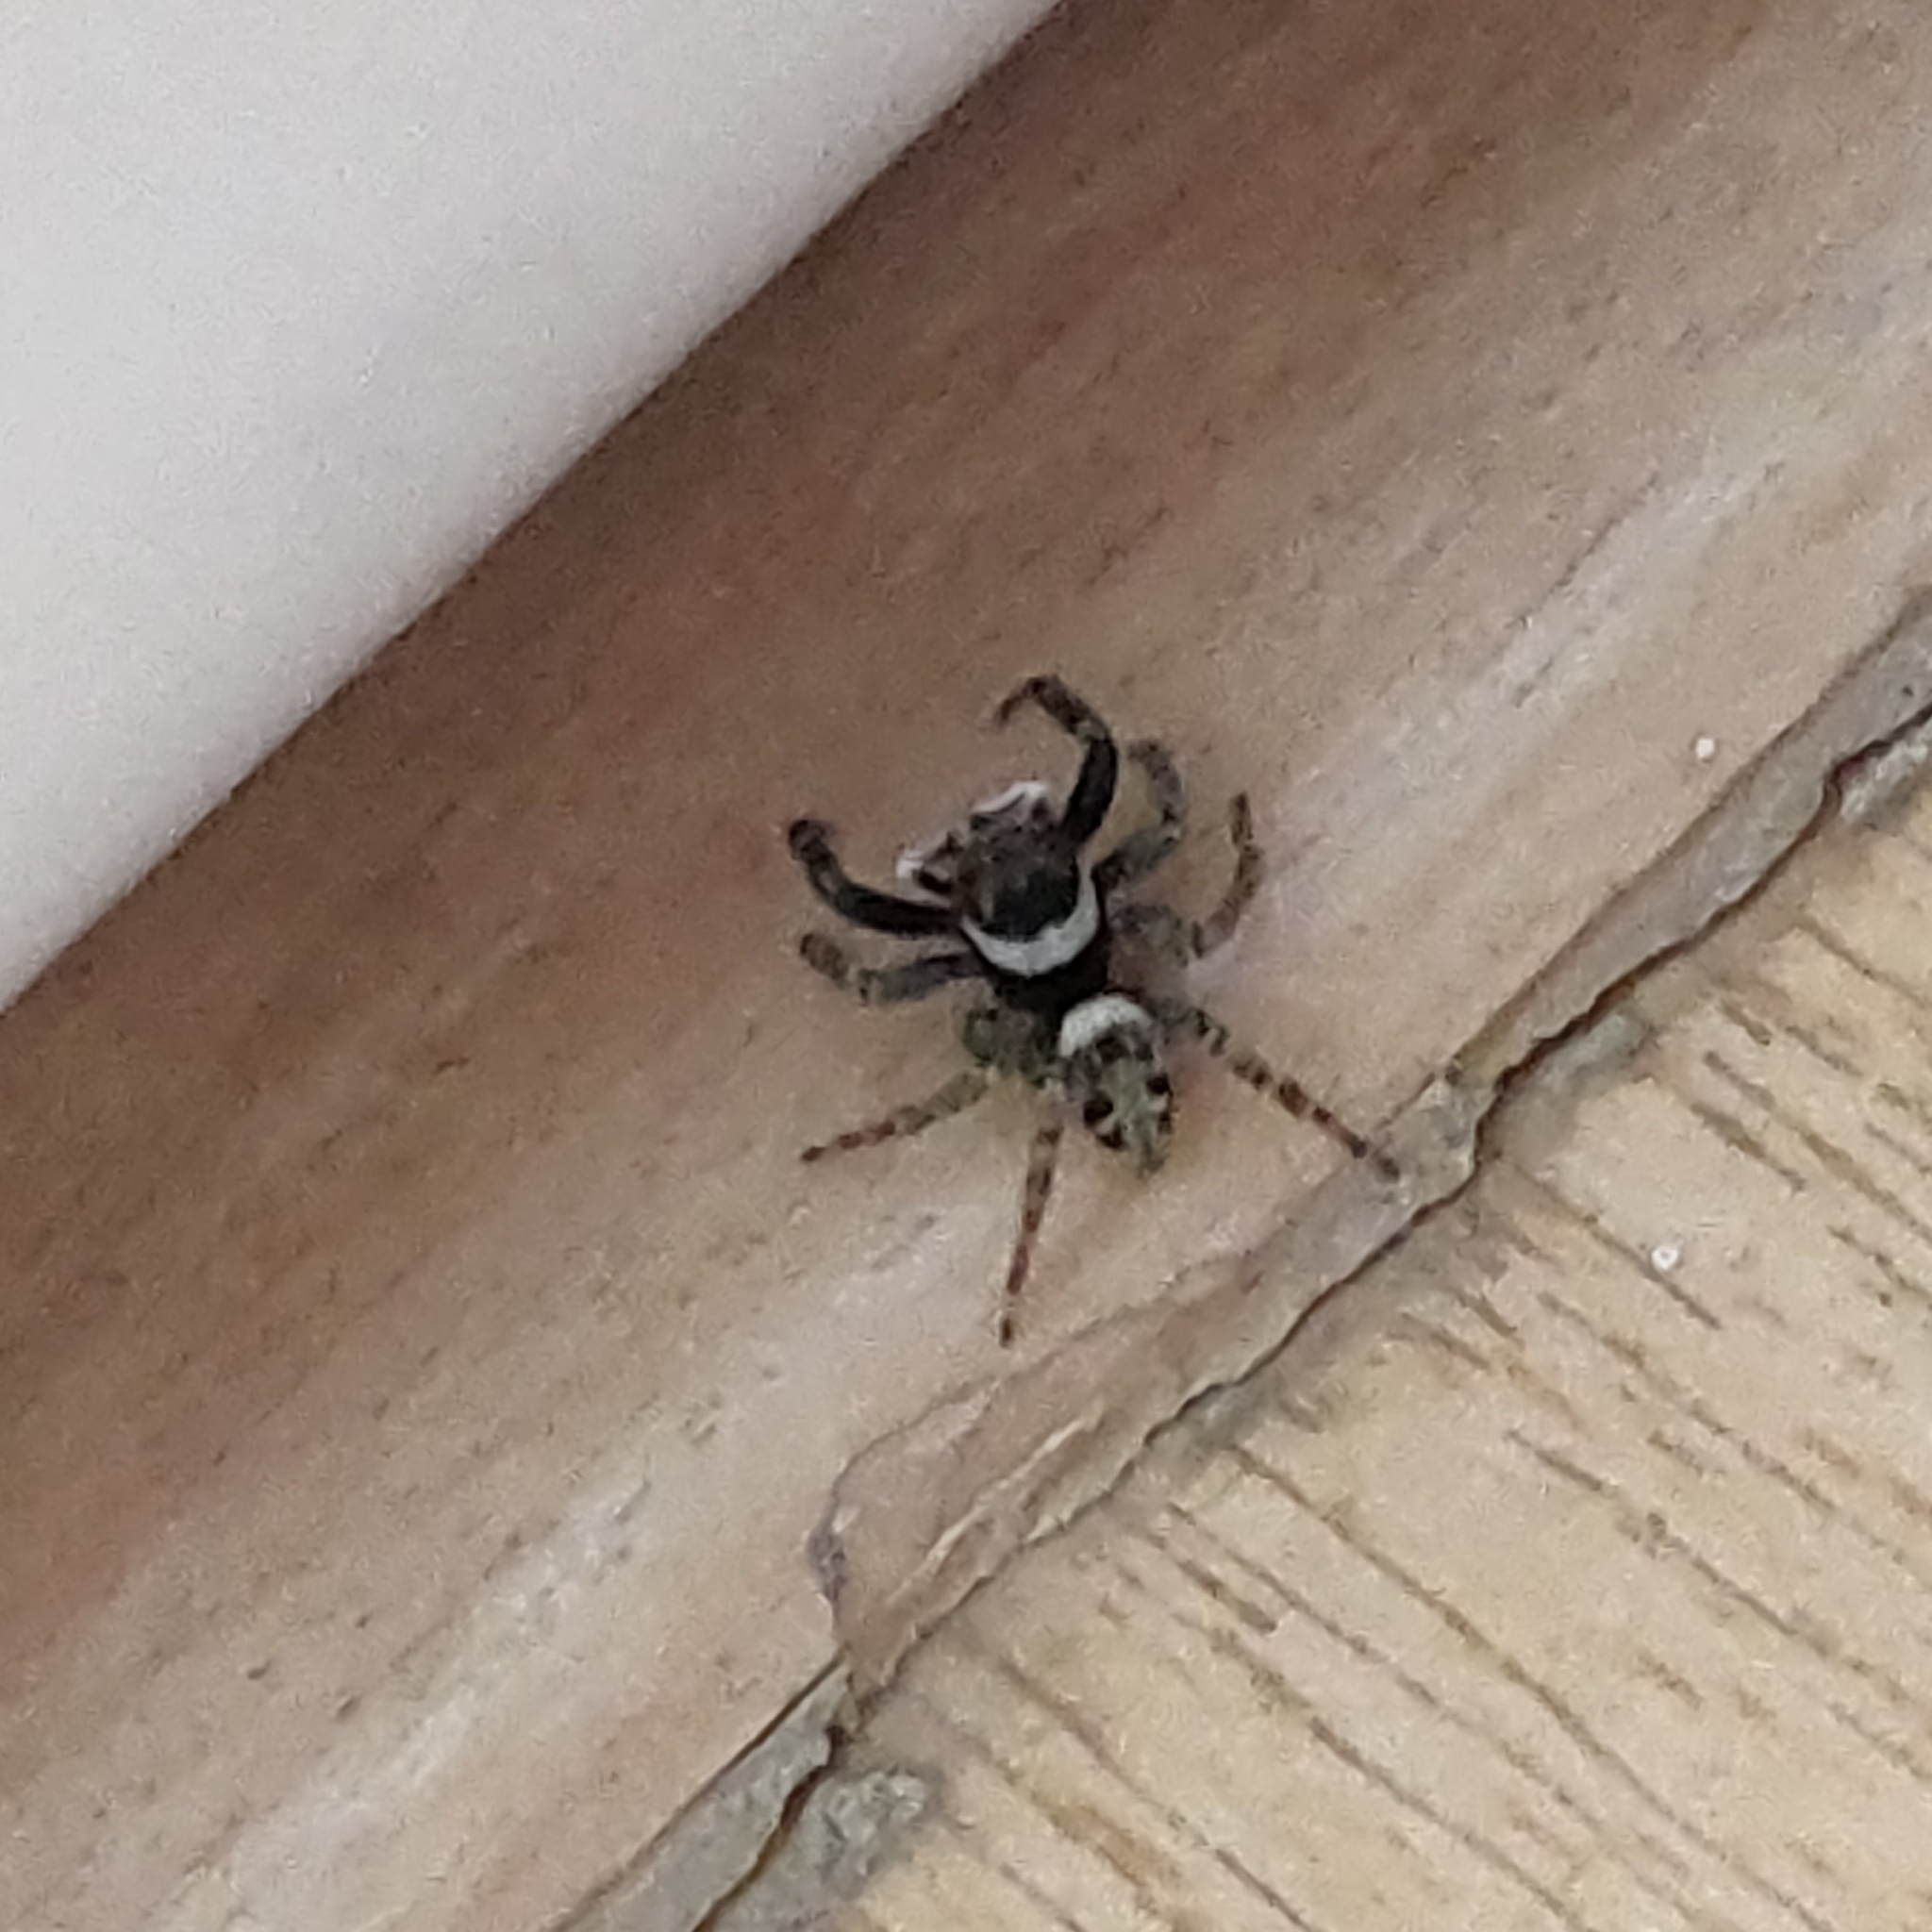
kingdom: Animalia
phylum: Arthropoda
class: Arachnida
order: Araneae
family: Salticidae
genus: Hasarius
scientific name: Hasarius adansoni
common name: Jumping spider
